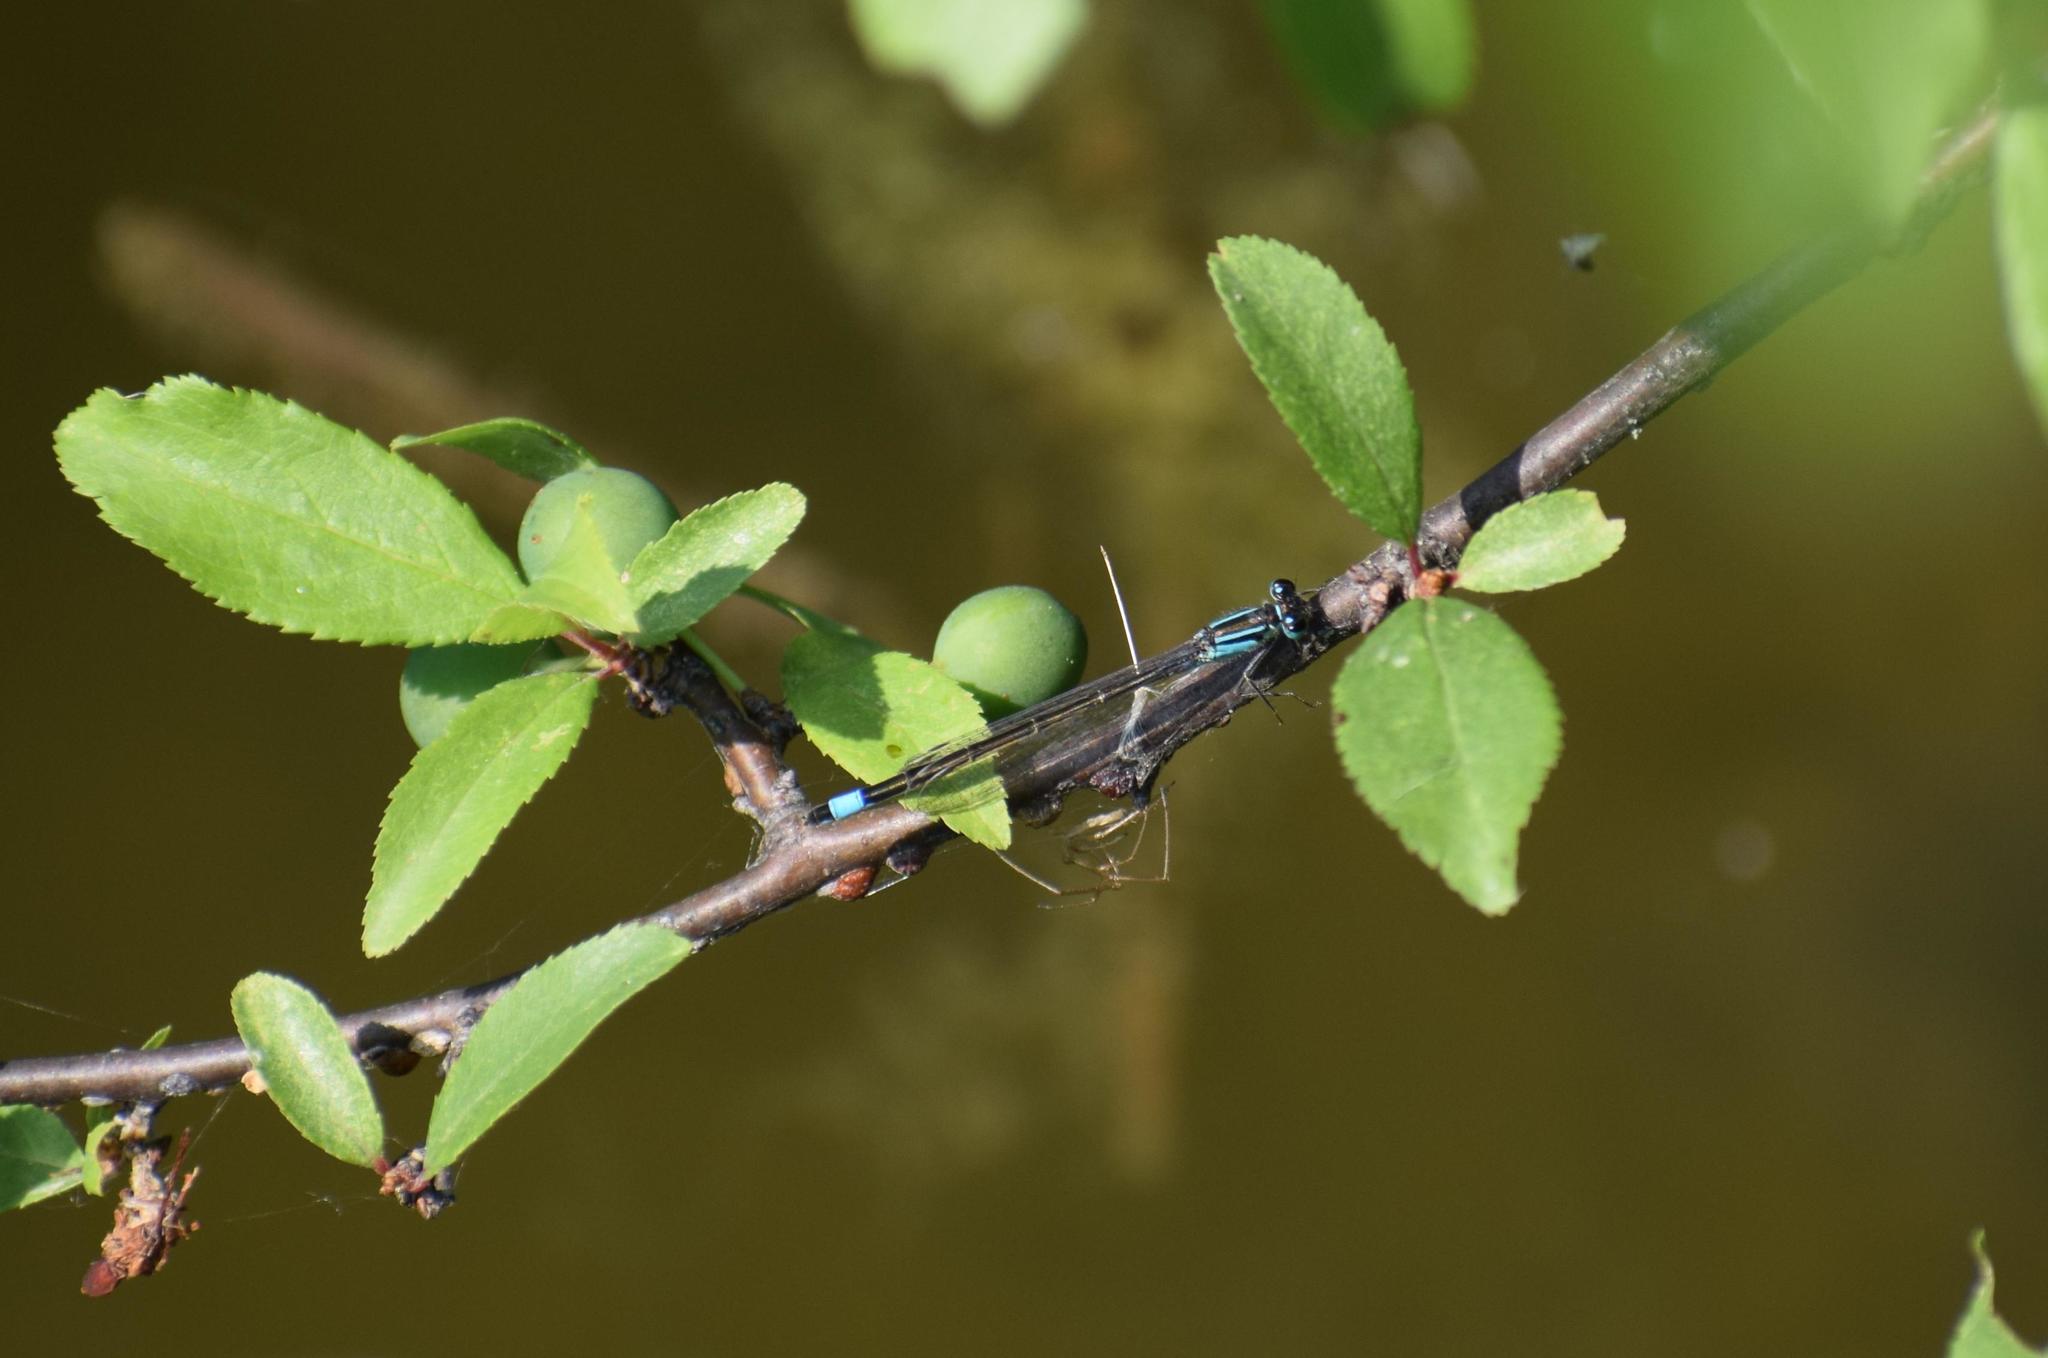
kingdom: Animalia
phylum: Arthropoda
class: Insecta
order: Odonata
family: Coenagrionidae
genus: Ischnura
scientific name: Ischnura elegans
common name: Blue-tailed damselfly
